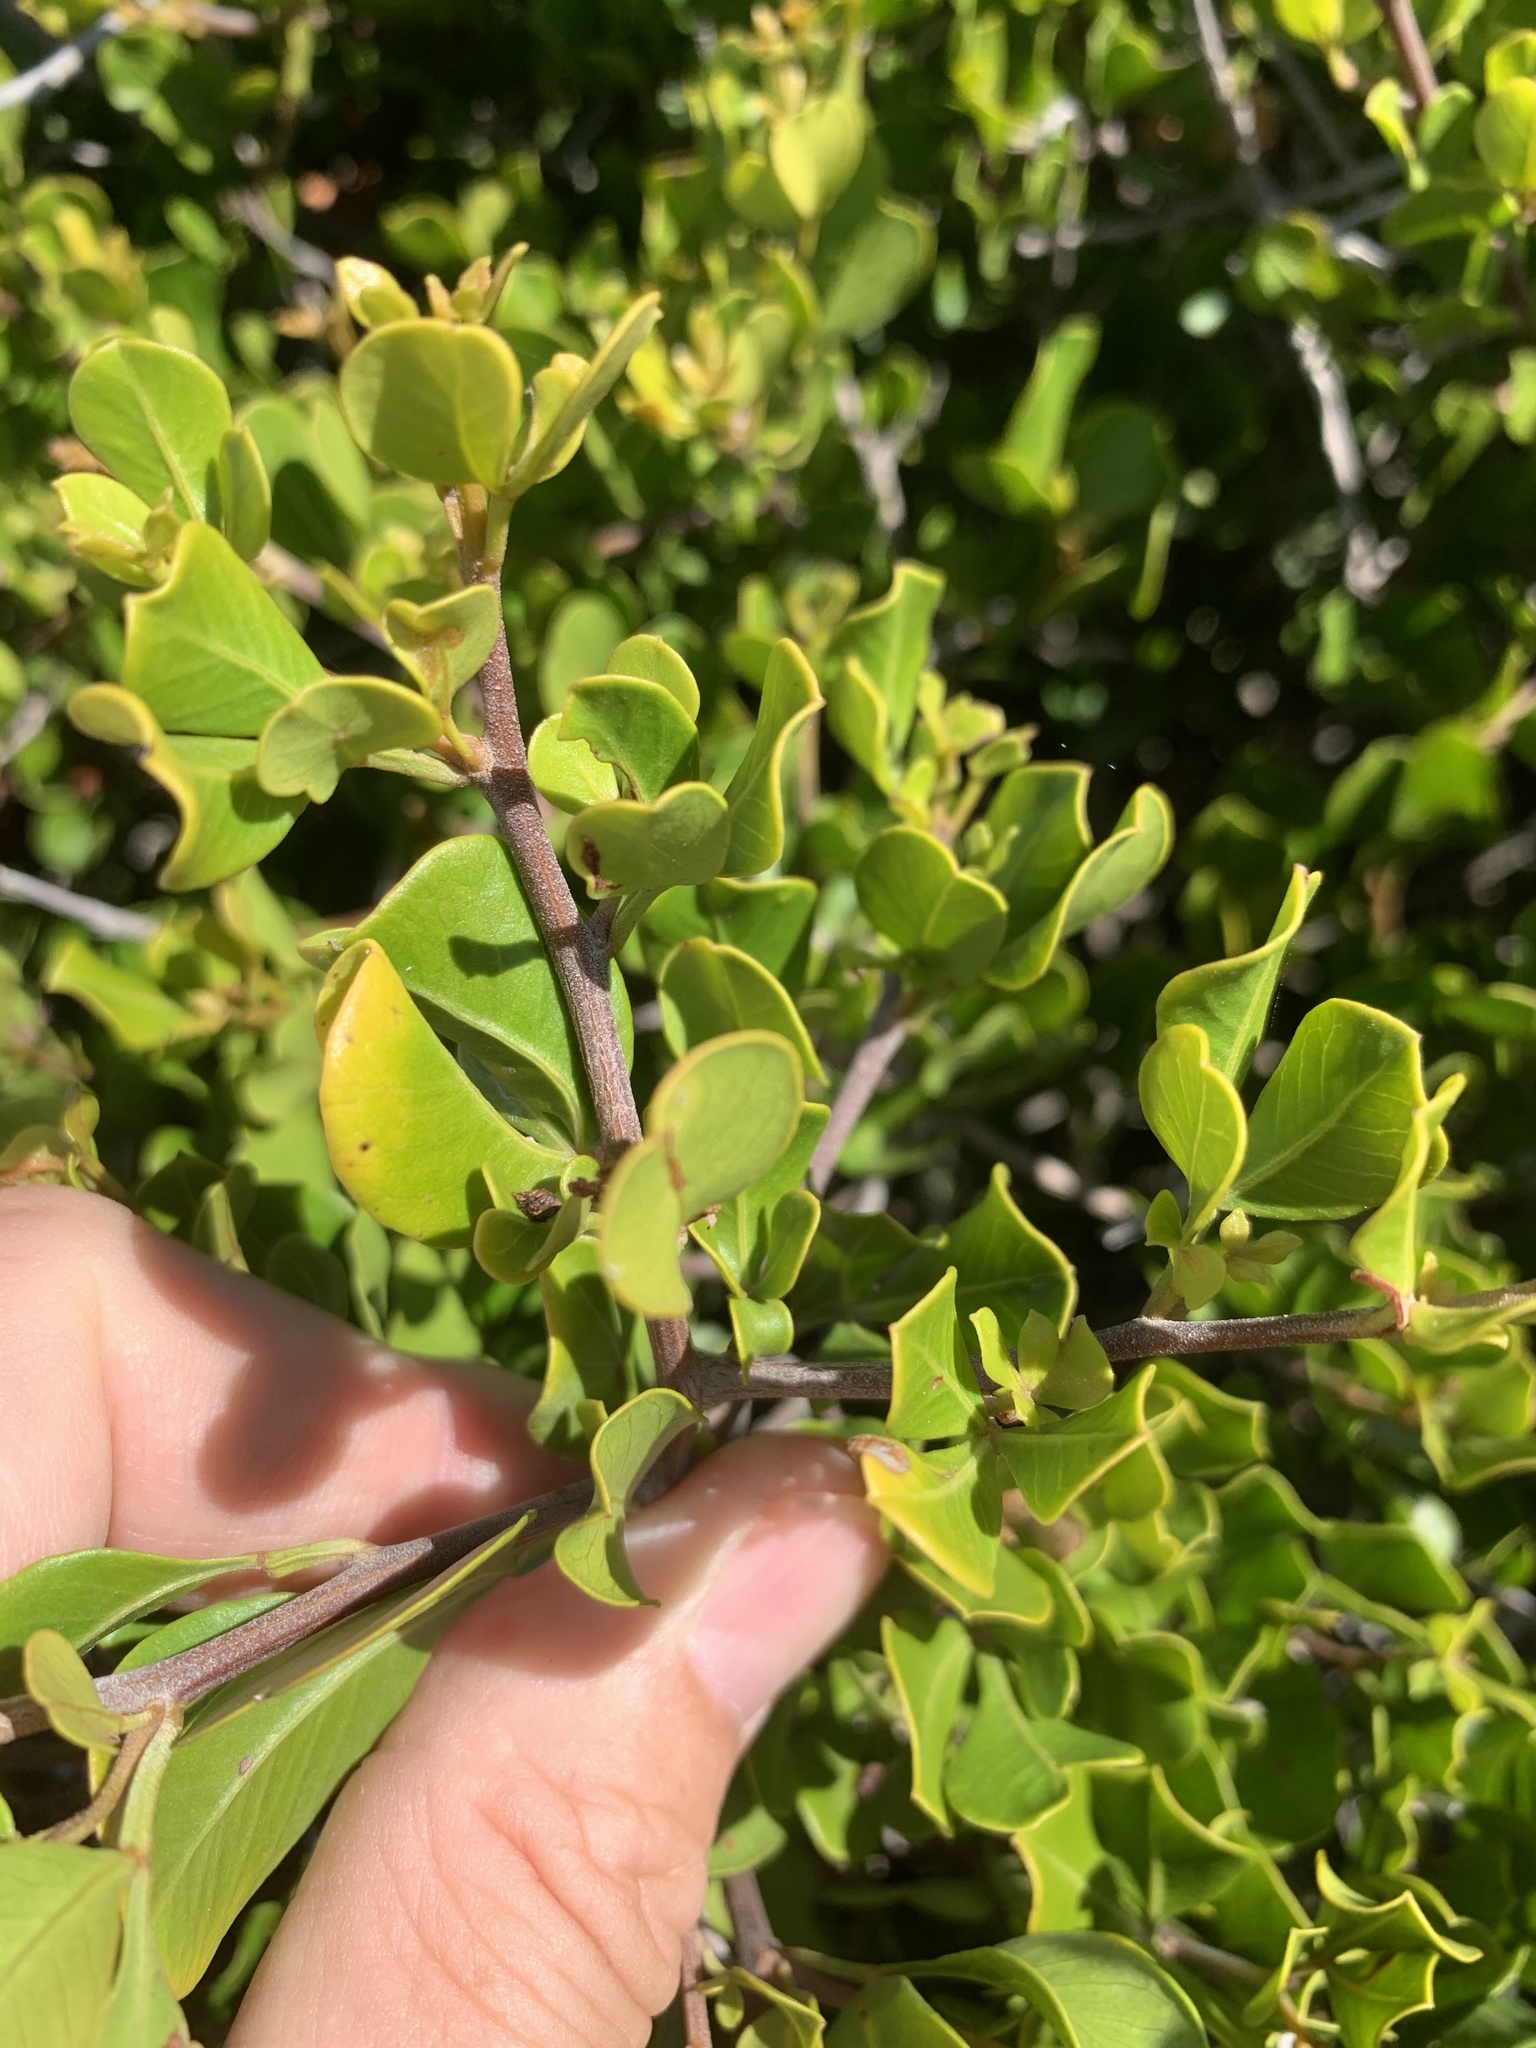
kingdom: Plantae
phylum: Tracheophyta
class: Magnoliopsida
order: Sapindales
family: Anacardiaceae
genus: Searsia
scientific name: Searsia glauca
